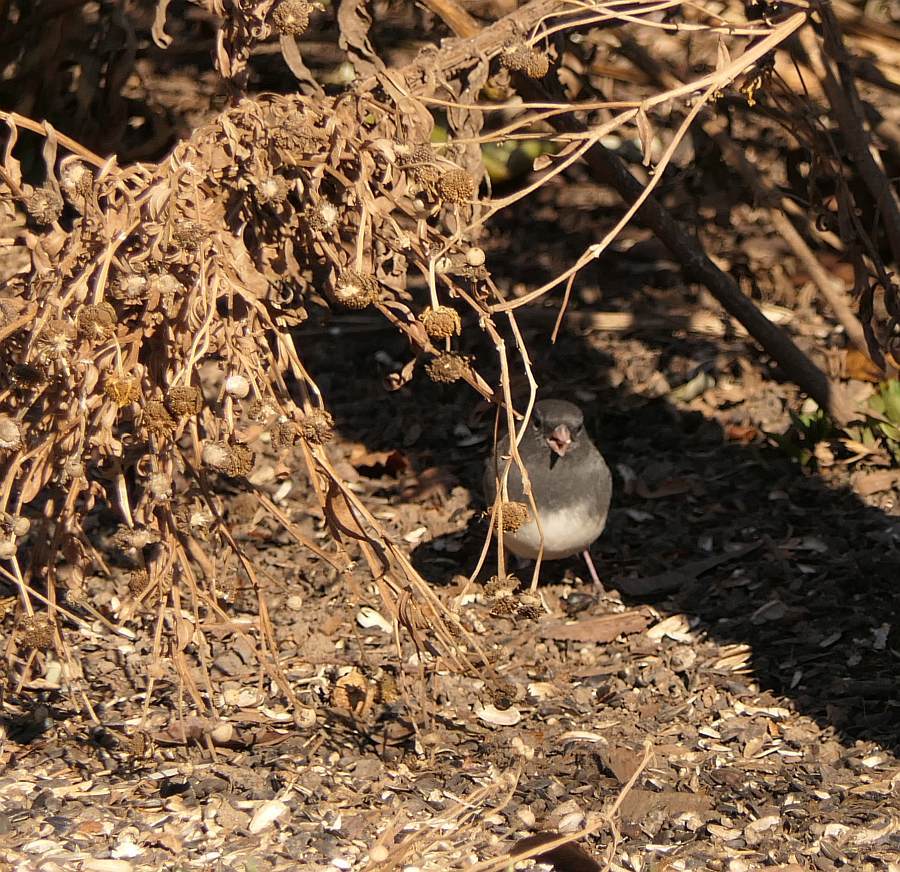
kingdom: Animalia
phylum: Chordata
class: Aves
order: Passeriformes
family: Passerellidae
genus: Junco
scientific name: Junco hyemalis
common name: Dark-eyed junco
